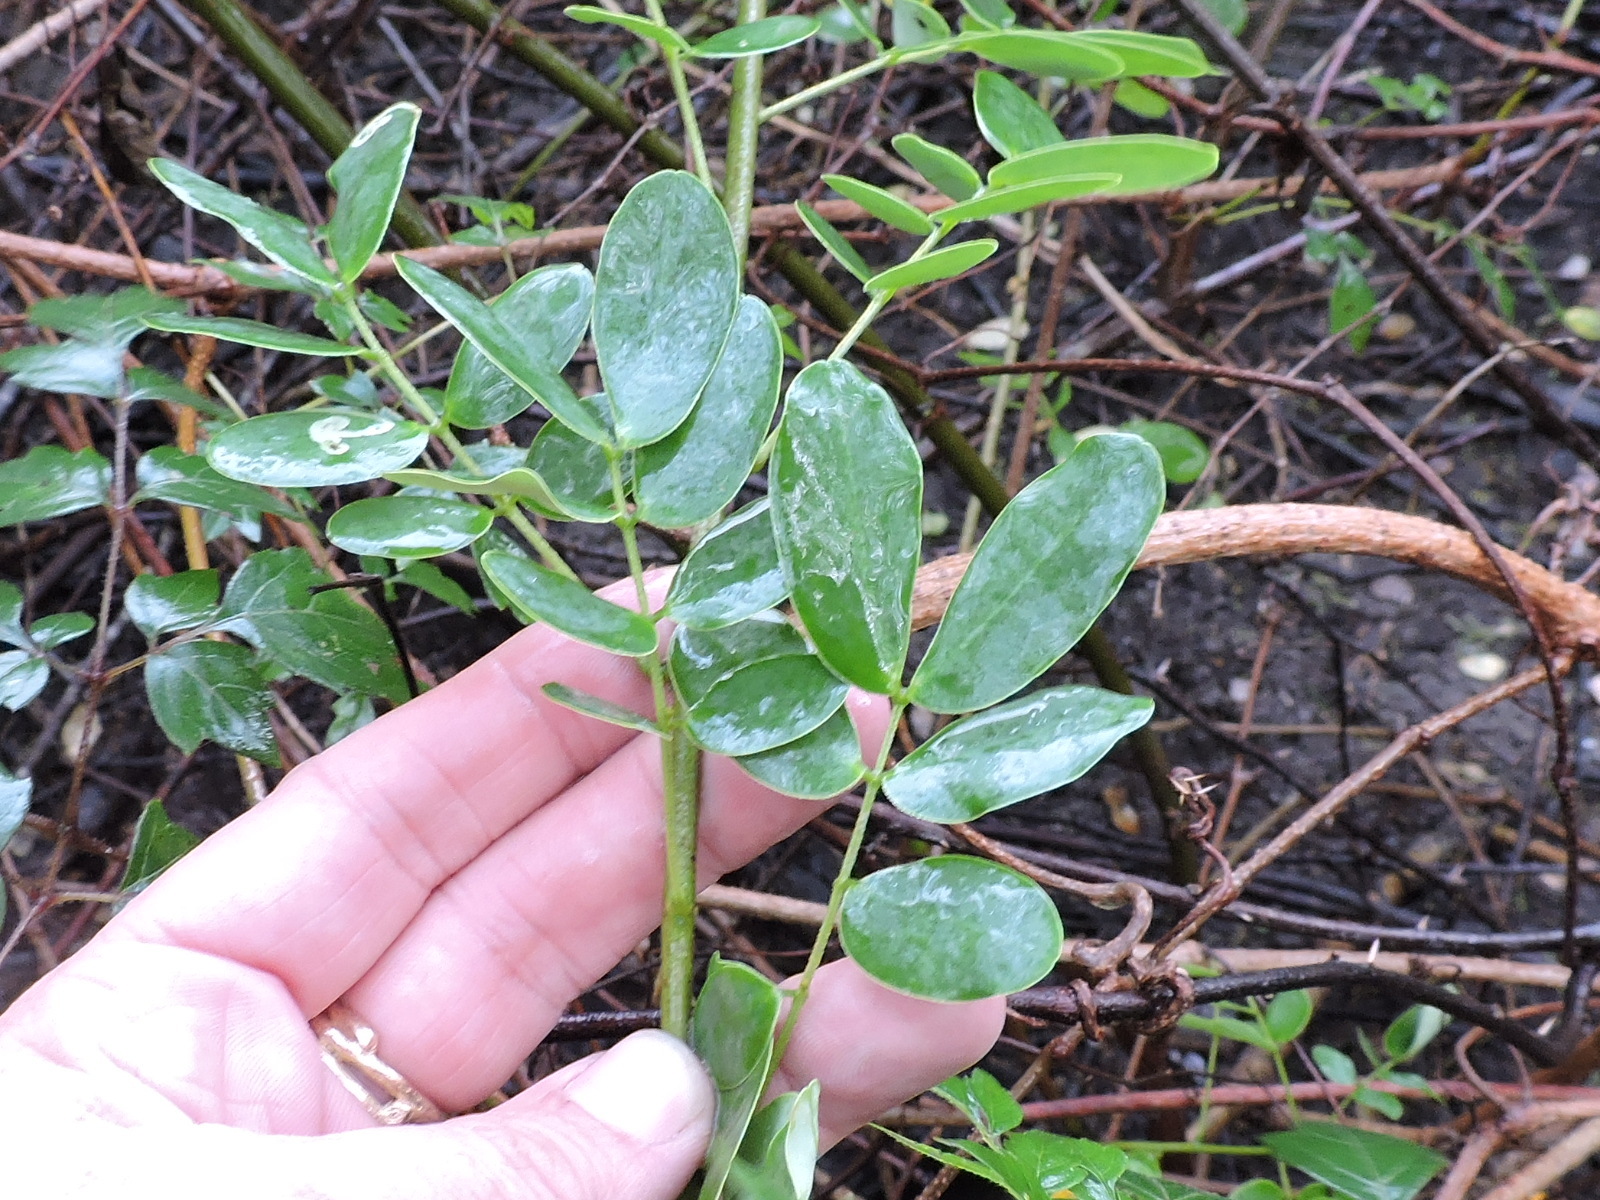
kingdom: Plantae
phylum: Tracheophyta
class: Magnoliopsida
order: Fabales
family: Fabaceae
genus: Senna
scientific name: Senna pendula
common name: Easter cassia
